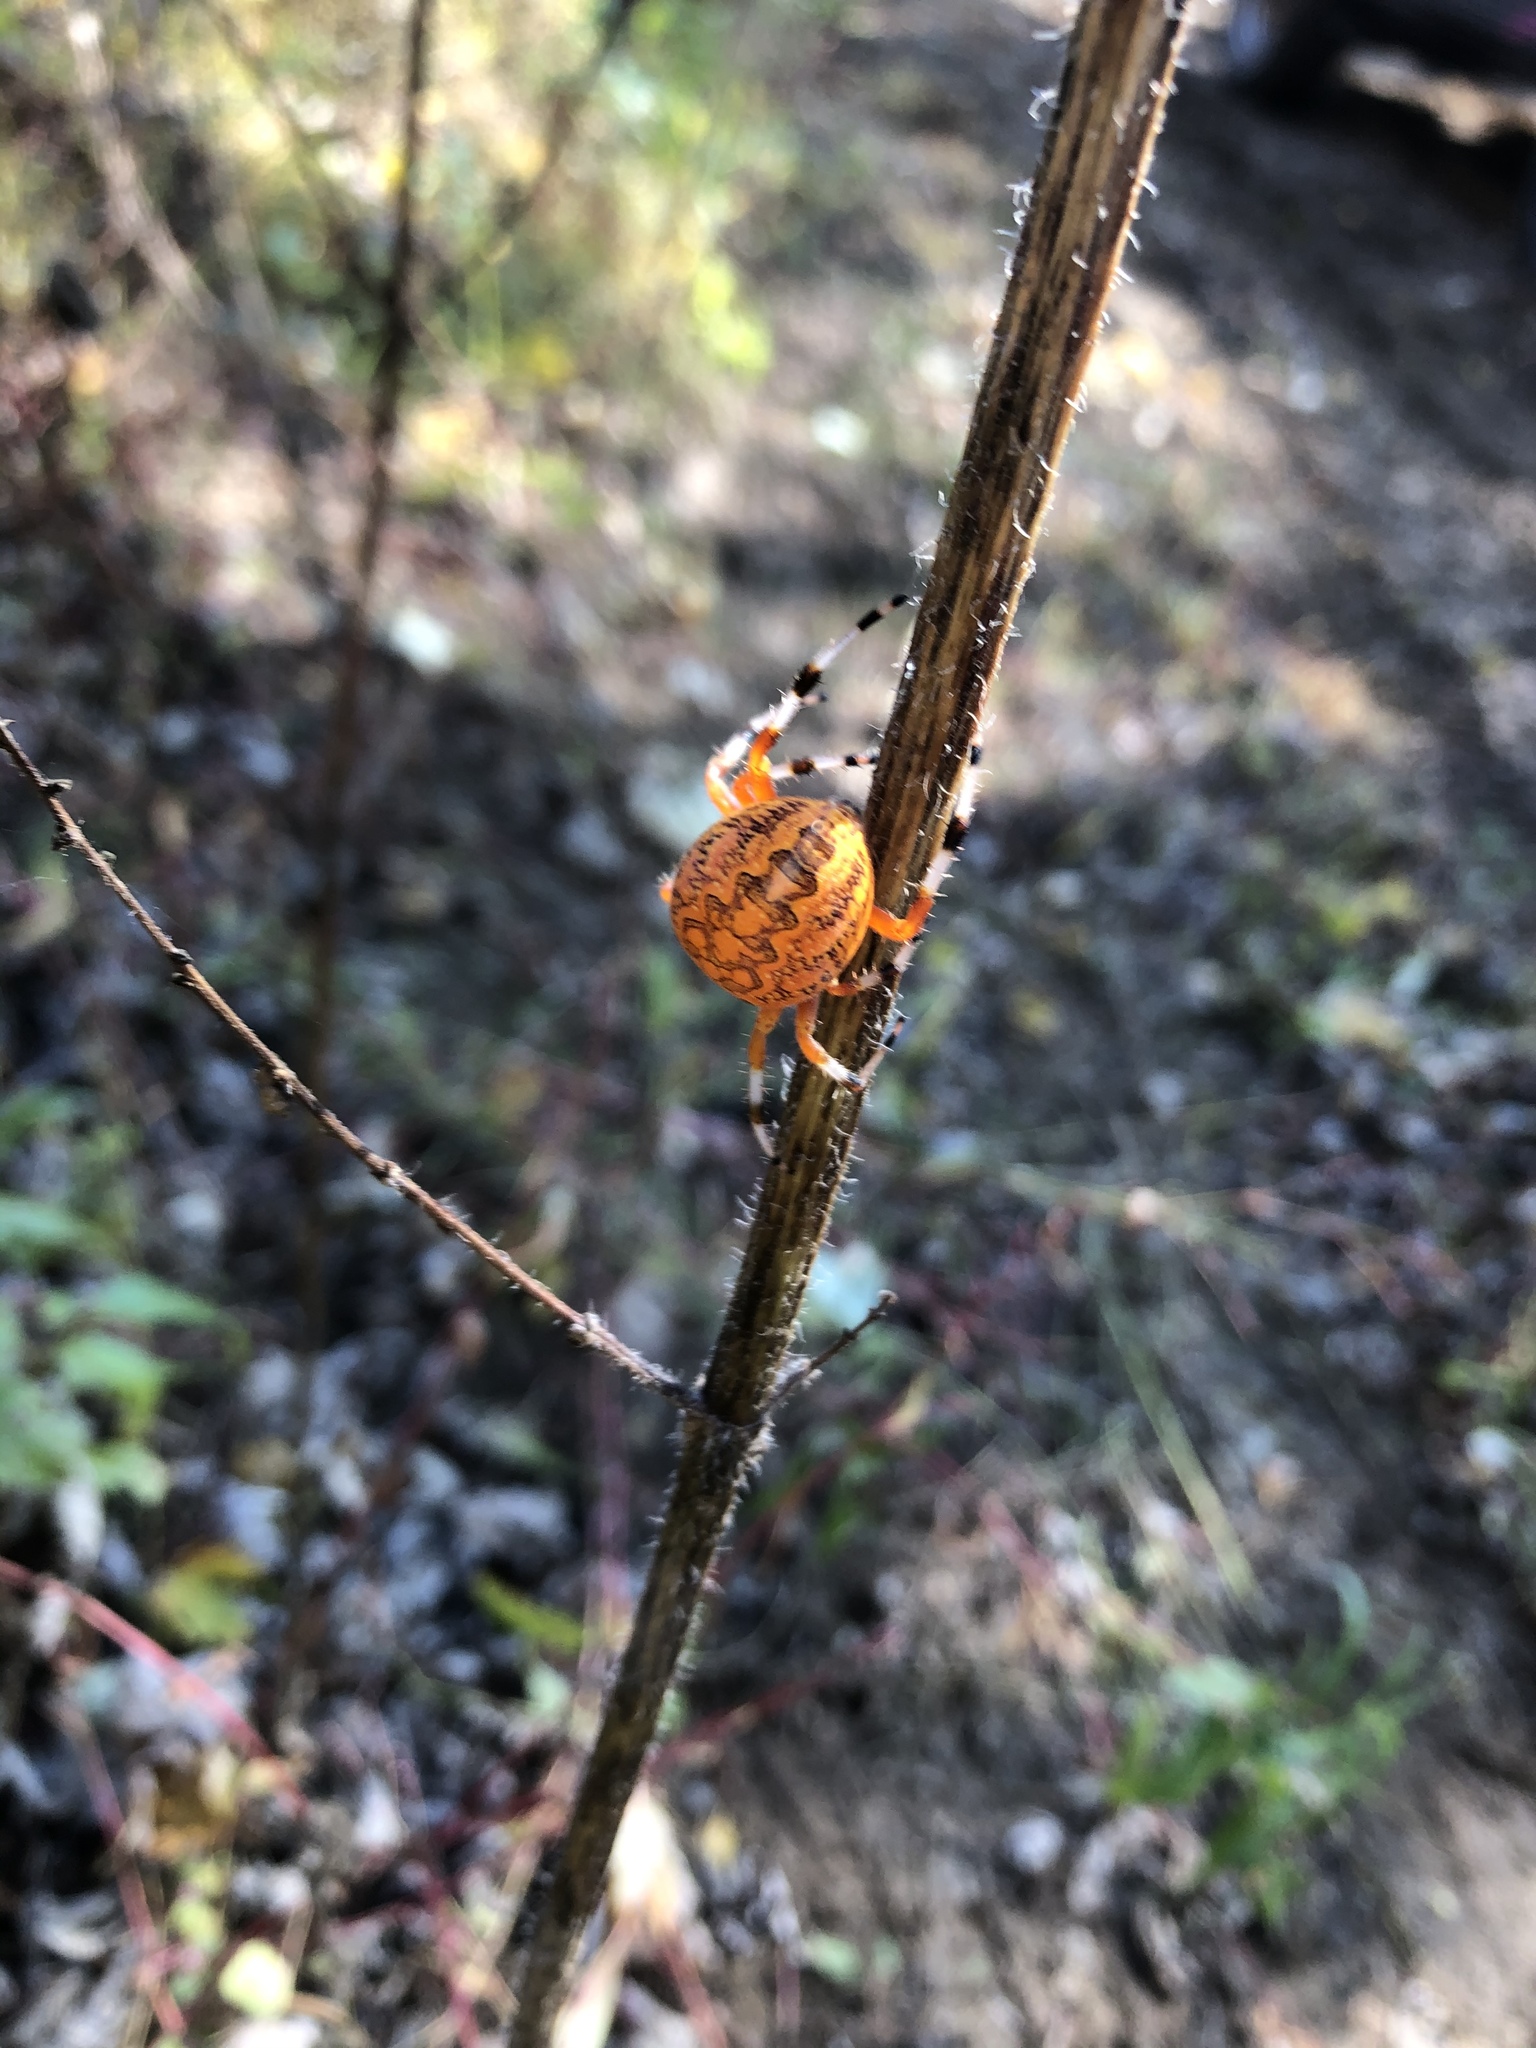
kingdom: Animalia
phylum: Arthropoda
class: Arachnida
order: Araneae
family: Araneidae
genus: Araneus
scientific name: Araneus marmoreus
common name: Marbled orbweaver
